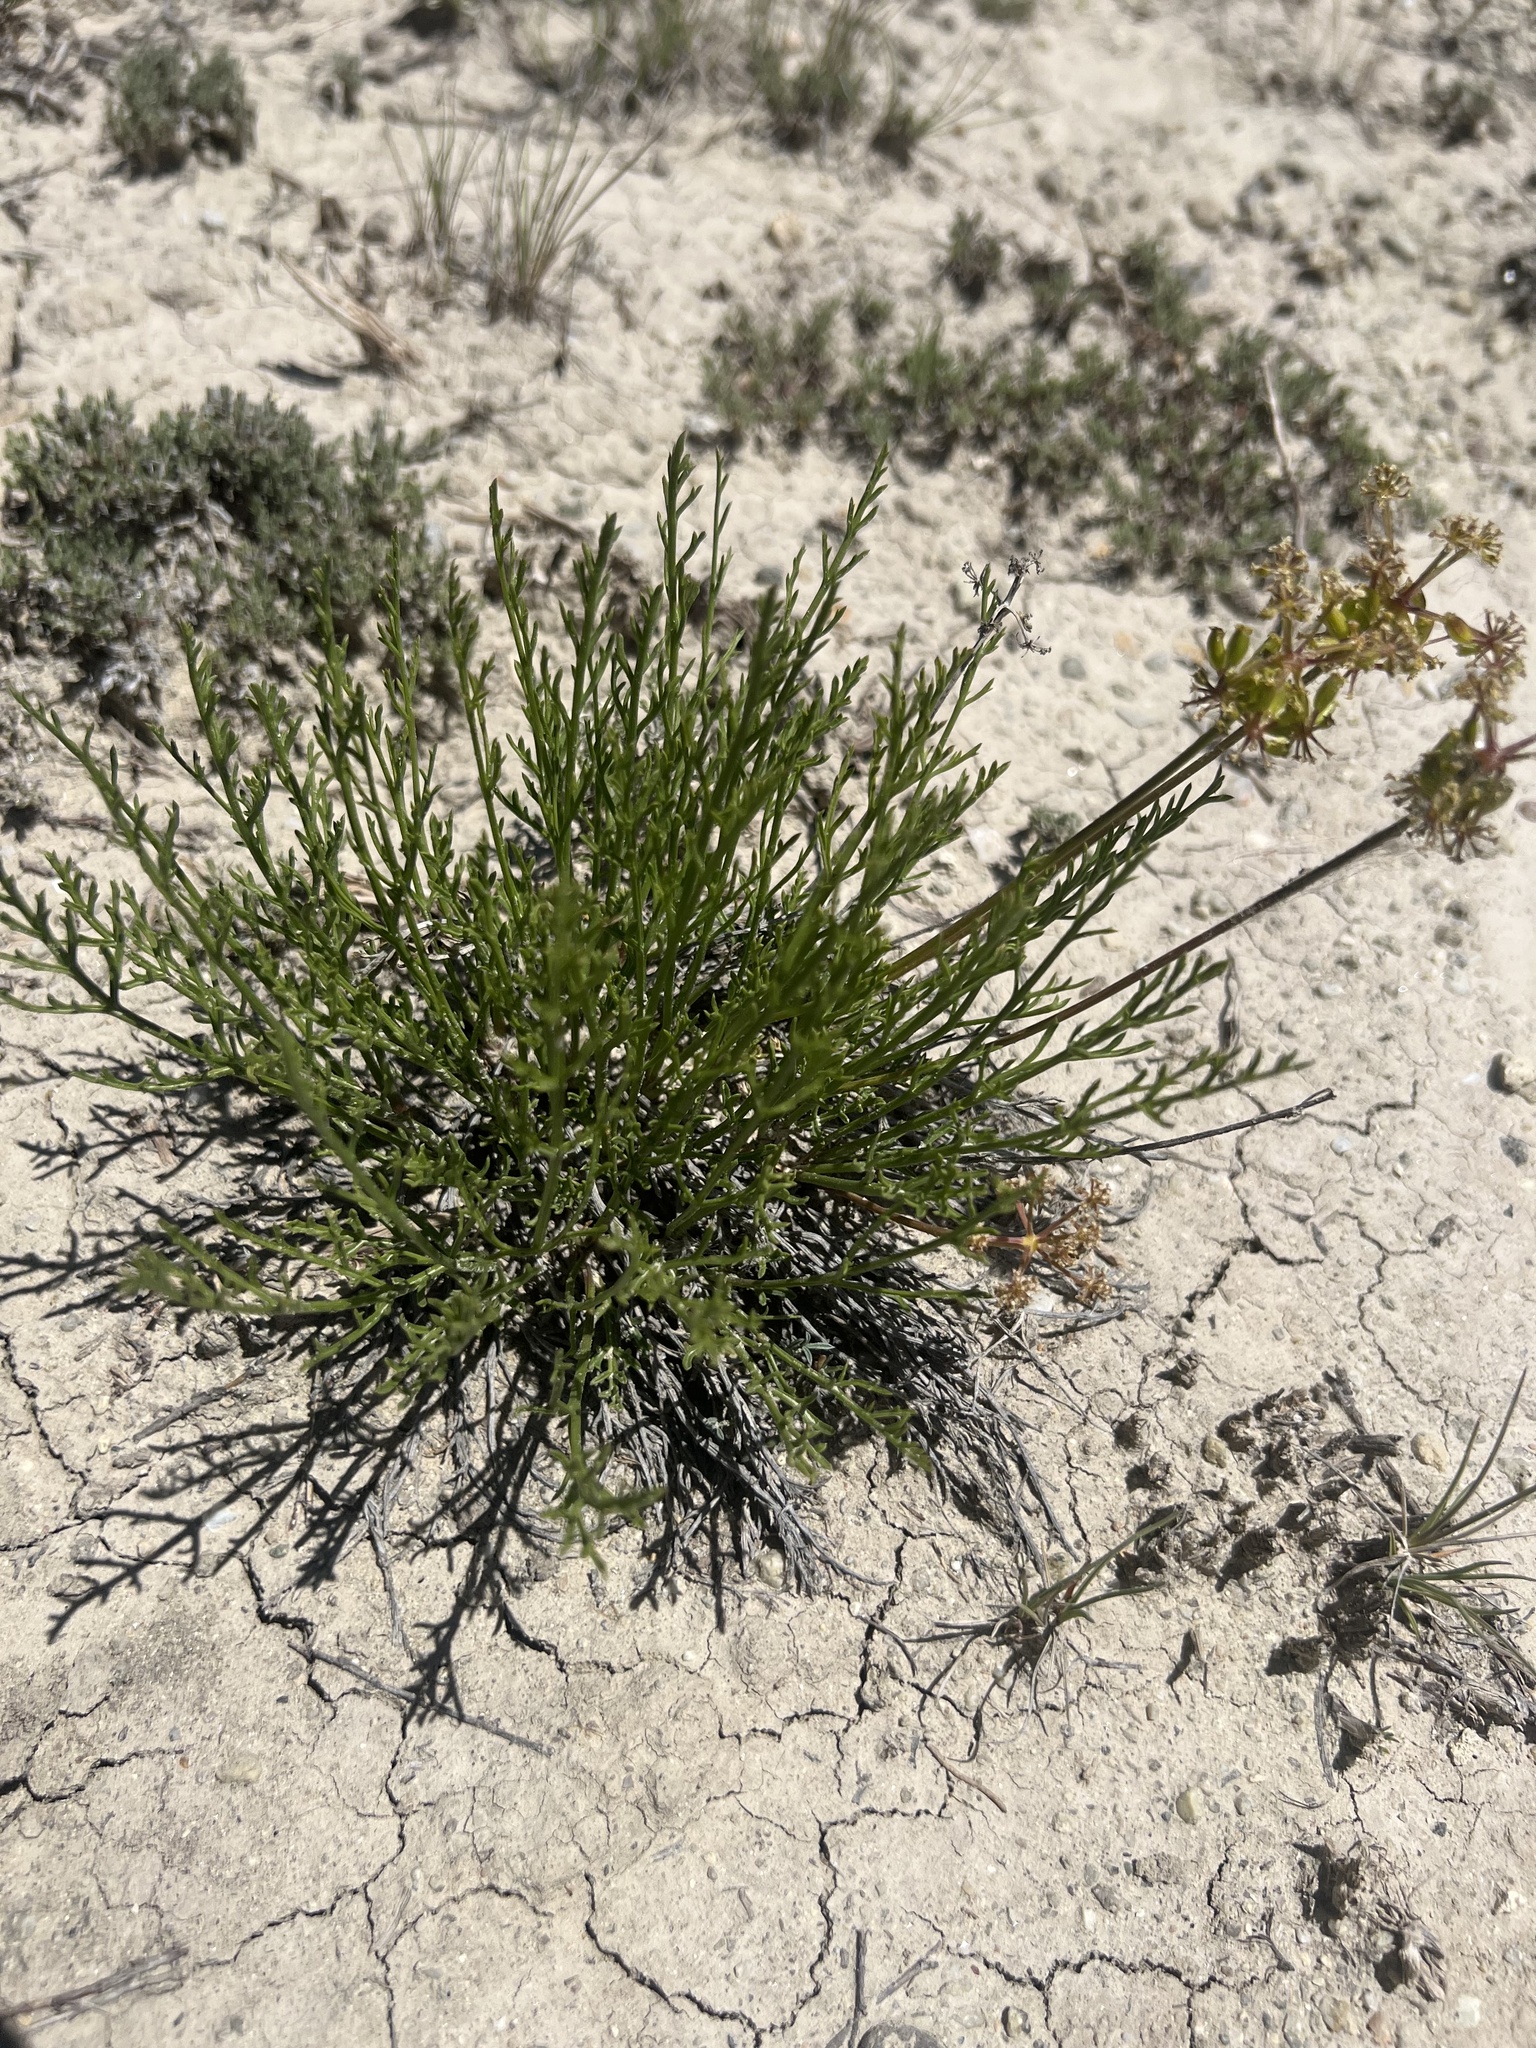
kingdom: Plantae
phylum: Tracheophyta
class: Magnoliopsida
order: Apiales
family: Apiaceae
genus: Lomatium
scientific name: Lomatium nuttallii
